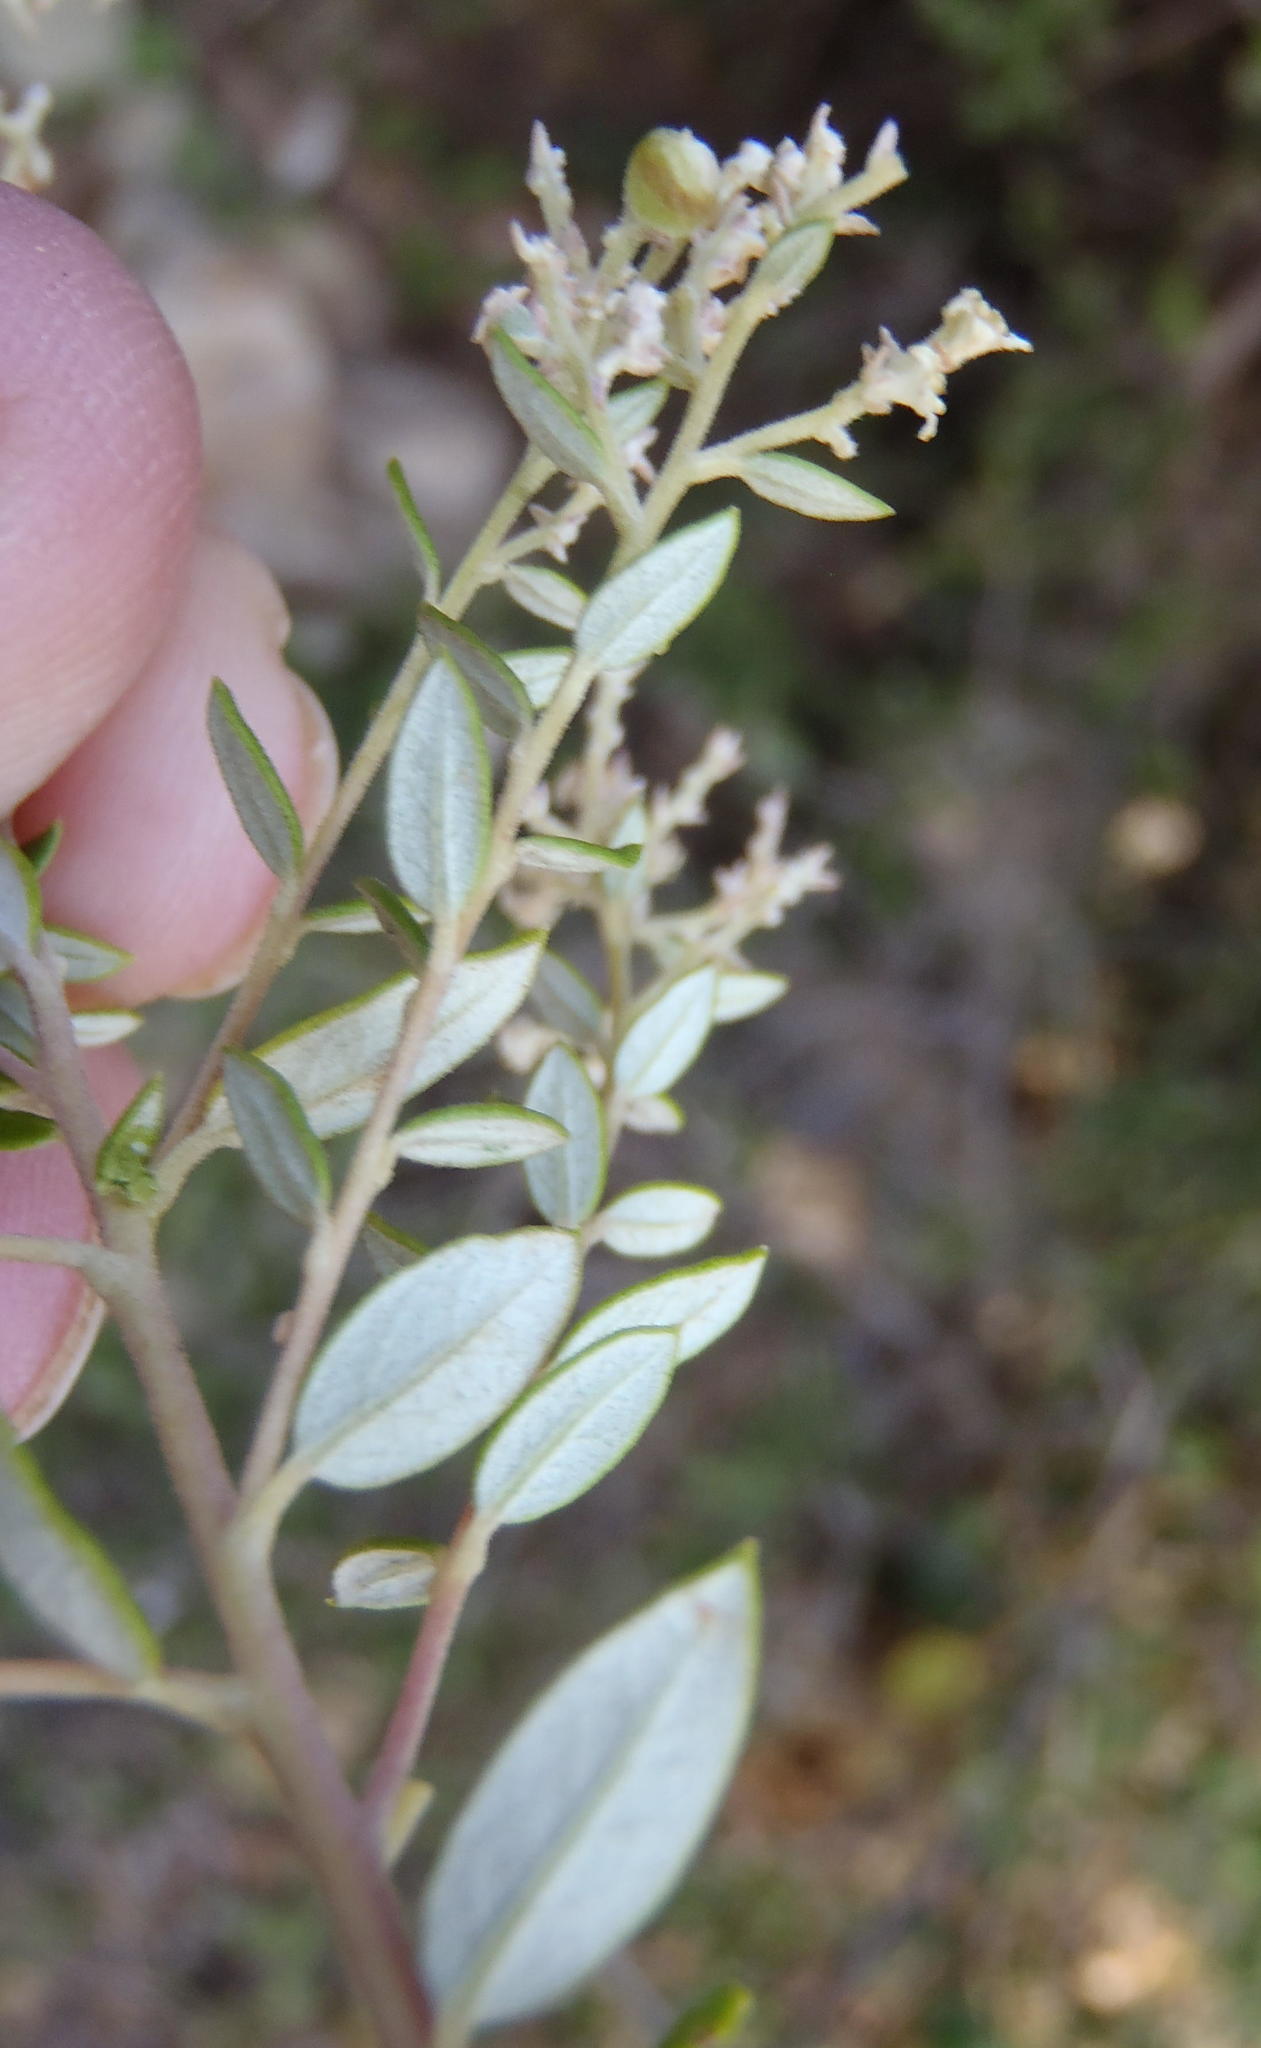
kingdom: Plantae
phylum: Tracheophyta
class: Magnoliopsida
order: Rosales
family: Rhamnaceae
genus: Phylica
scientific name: Phylica paniculata
